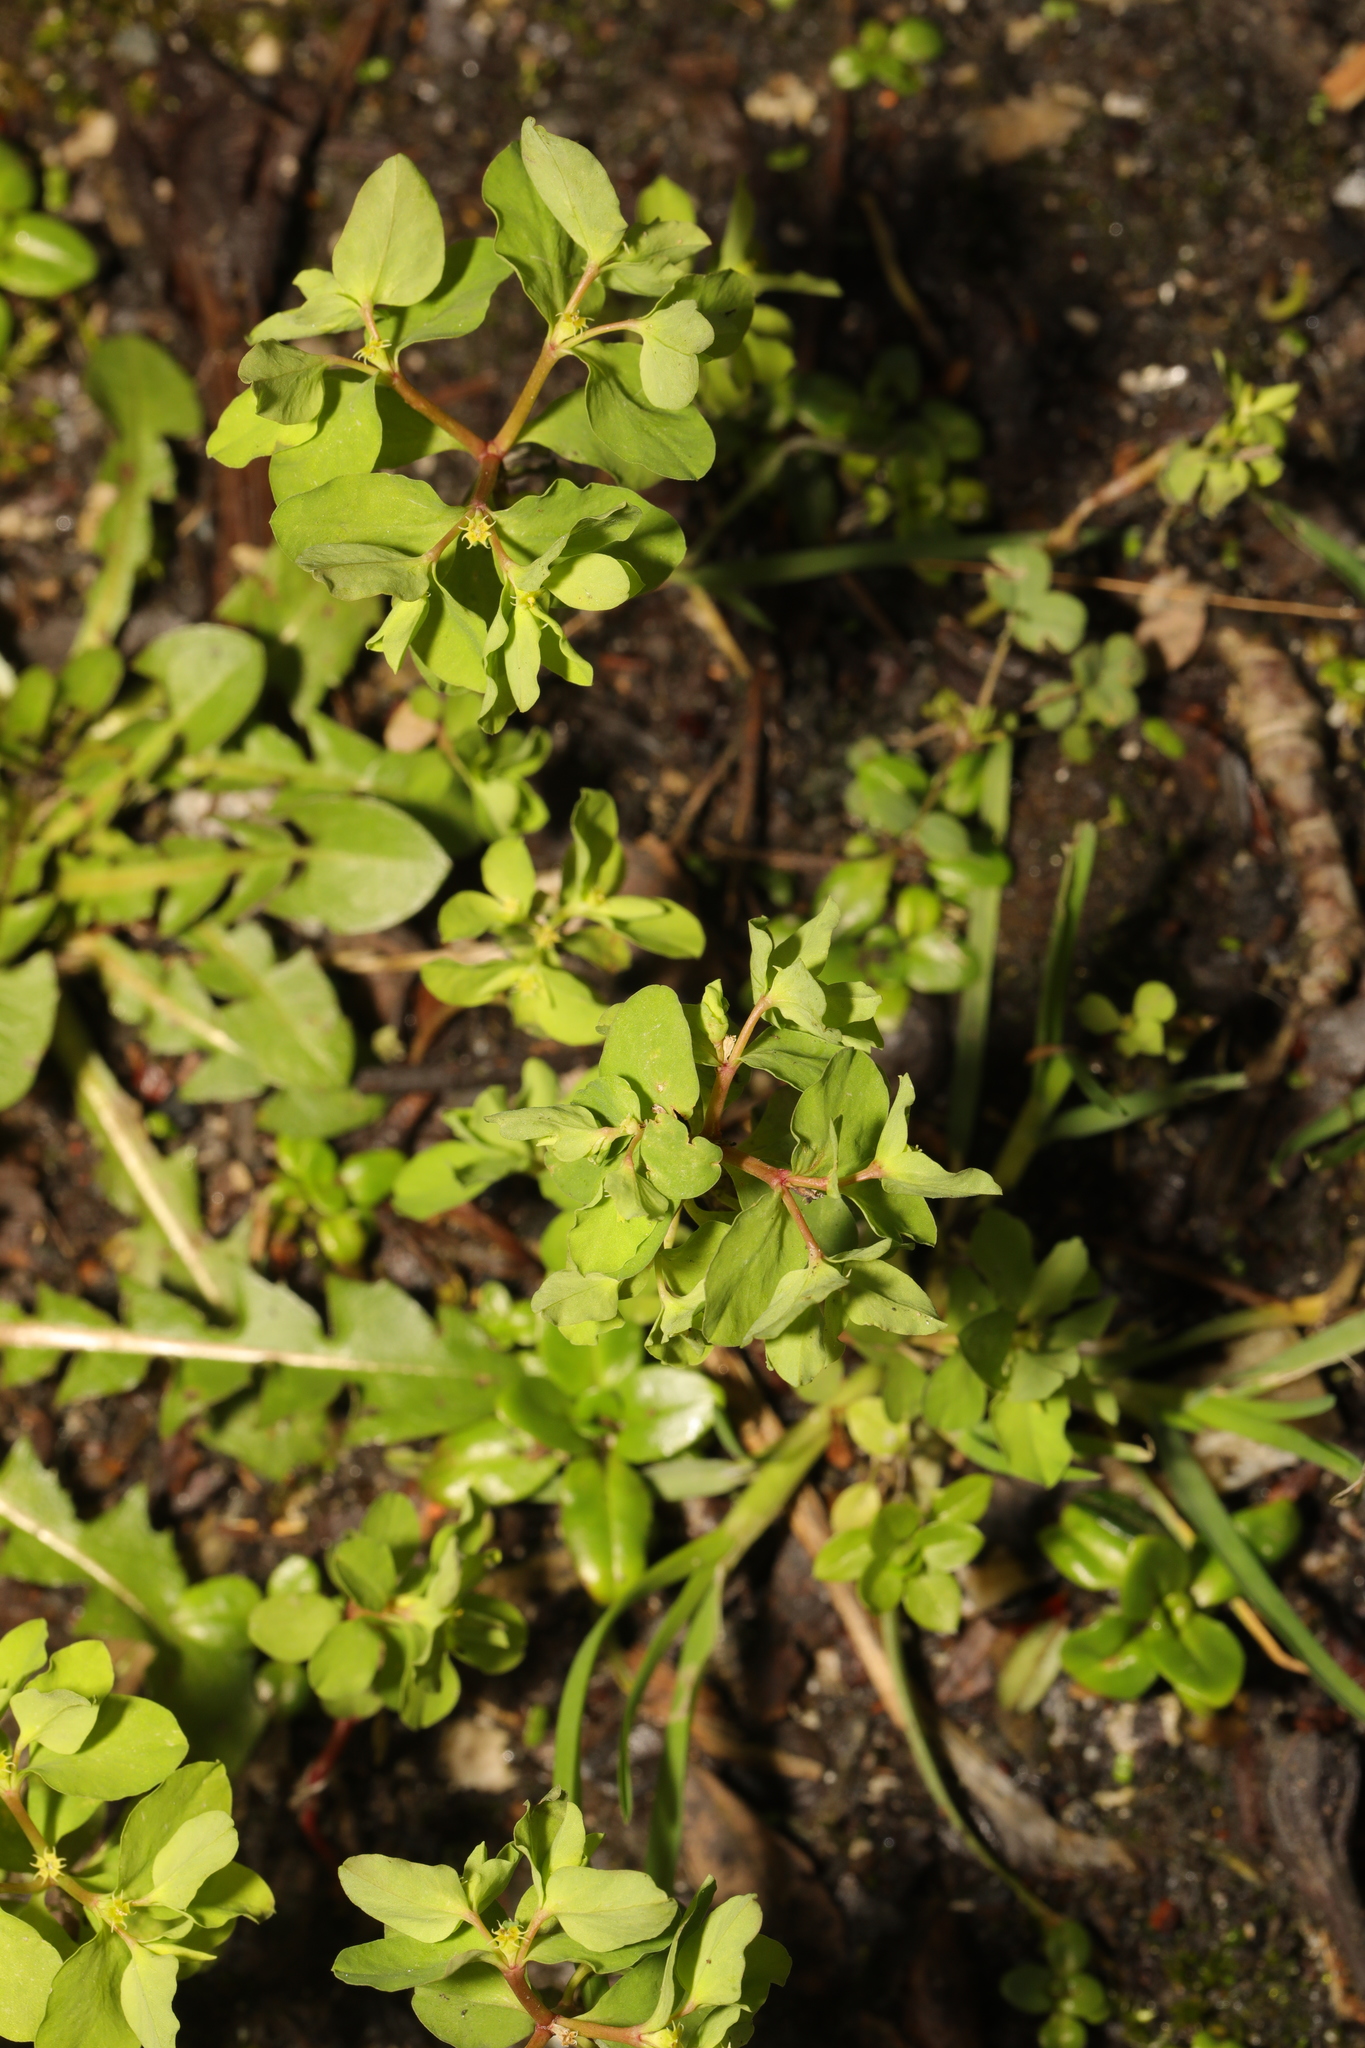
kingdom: Plantae
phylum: Tracheophyta
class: Magnoliopsida
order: Malpighiales
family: Euphorbiaceae
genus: Euphorbia
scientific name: Euphorbia peplus
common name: Petty spurge
